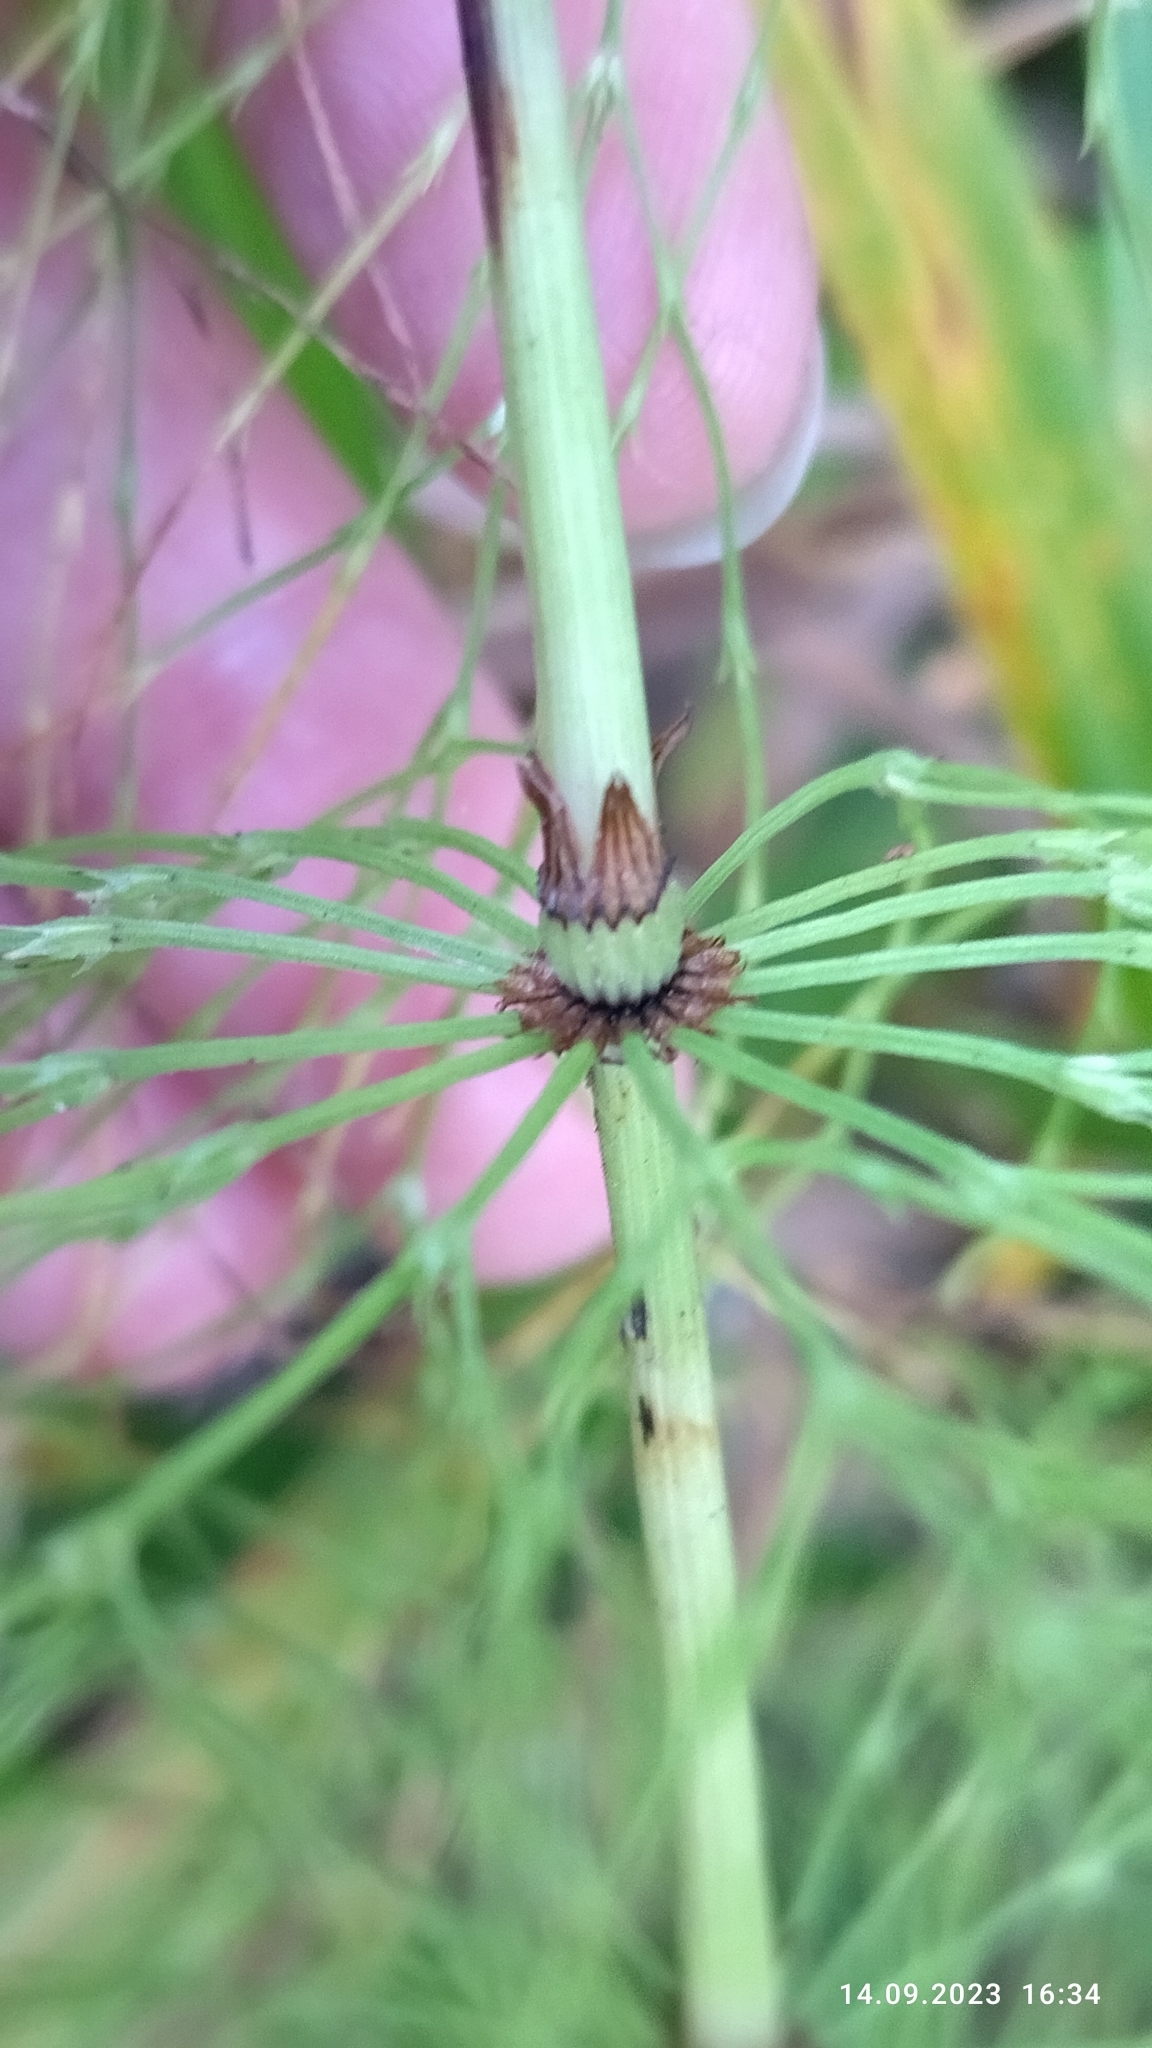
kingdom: Plantae
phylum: Tracheophyta
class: Polypodiopsida
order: Equisetales
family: Equisetaceae
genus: Equisetum
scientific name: Equisetum sylvaticum
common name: Wood horsetail
